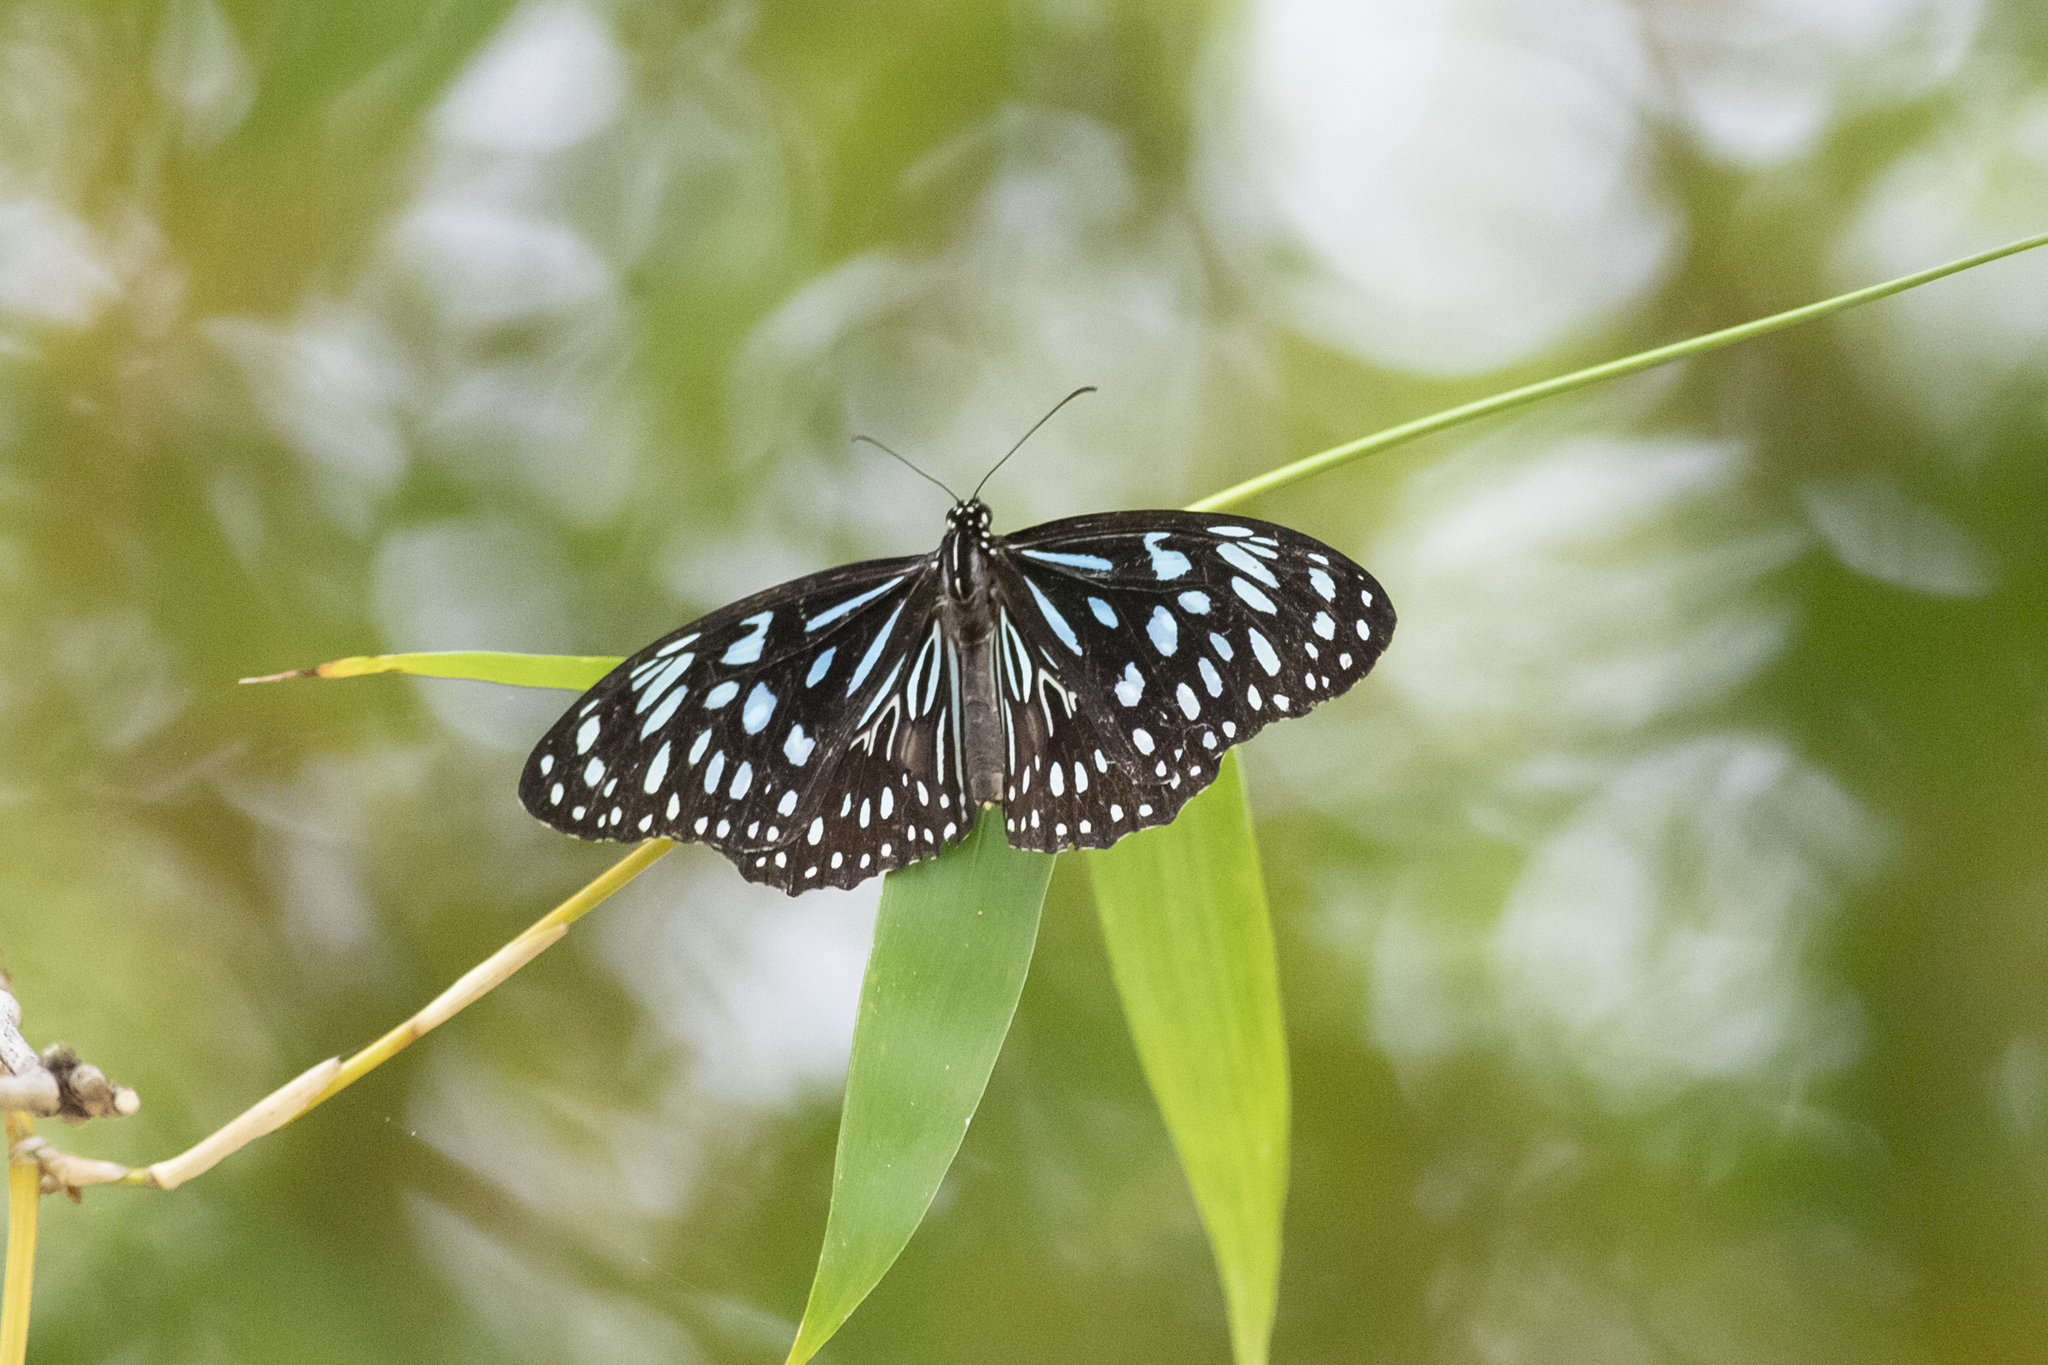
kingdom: Animalia
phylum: Arthropoda
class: Insecta
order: Lepidoptera
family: Nymphalidae
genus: Tirumala
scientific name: Tirumala hamata
